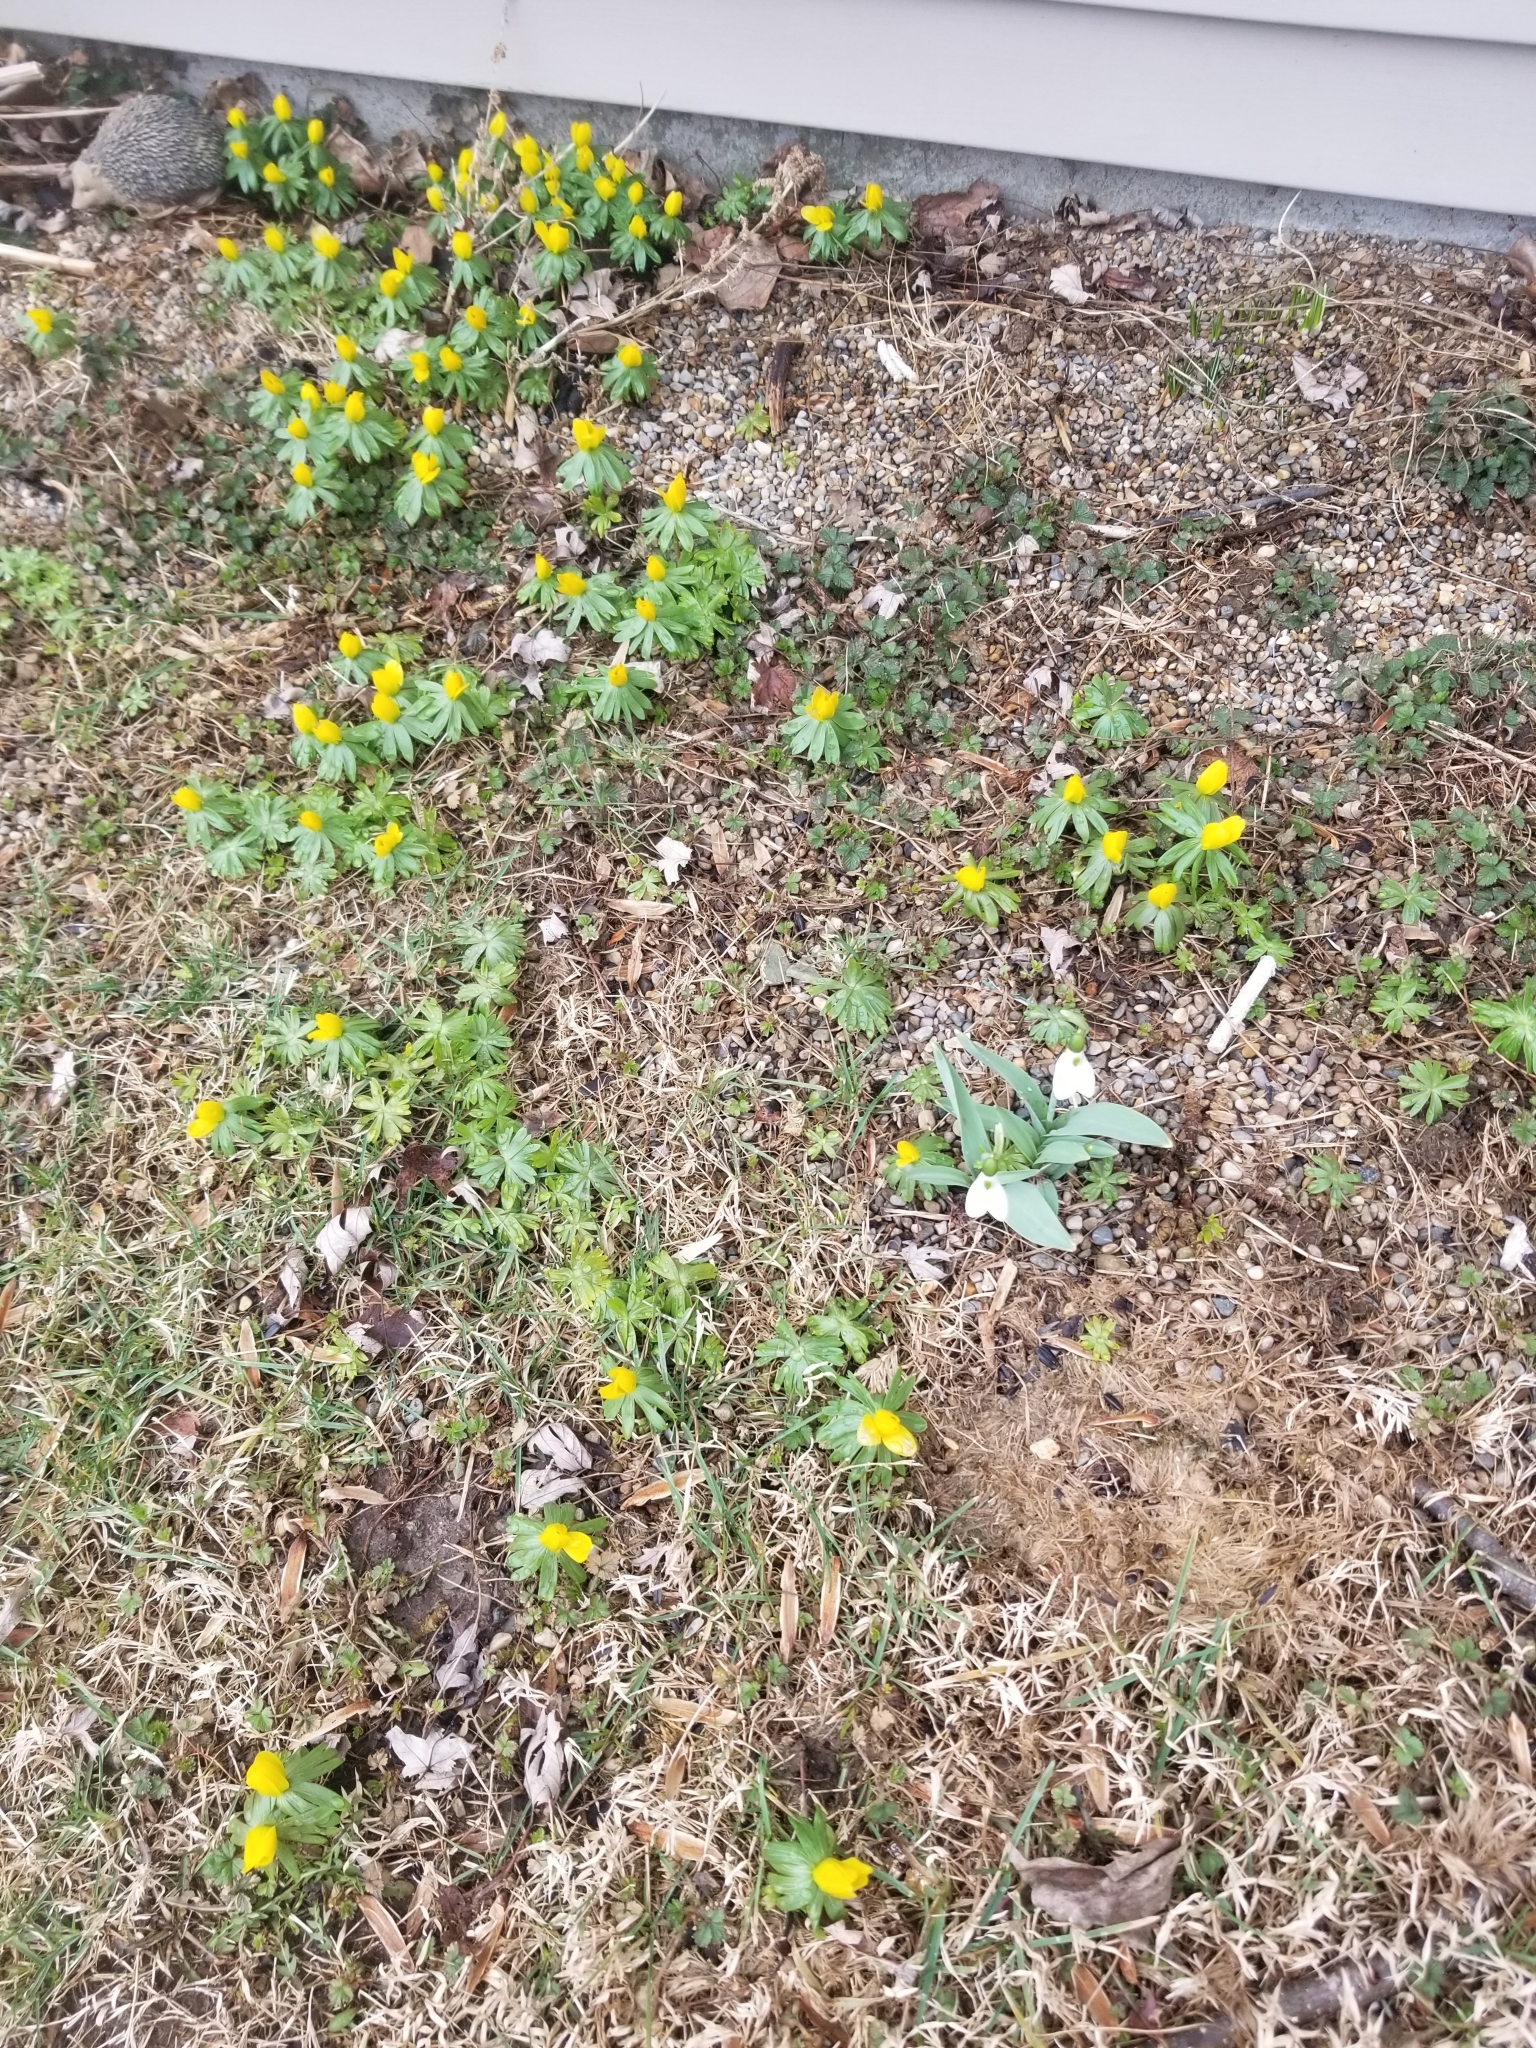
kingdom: Plantae
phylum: Tracheophyta
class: Magnoliopsida
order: Ranunculales
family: Ranunculaceae
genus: Eranthis
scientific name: Eranthis hyemalis
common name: Winter aconite
